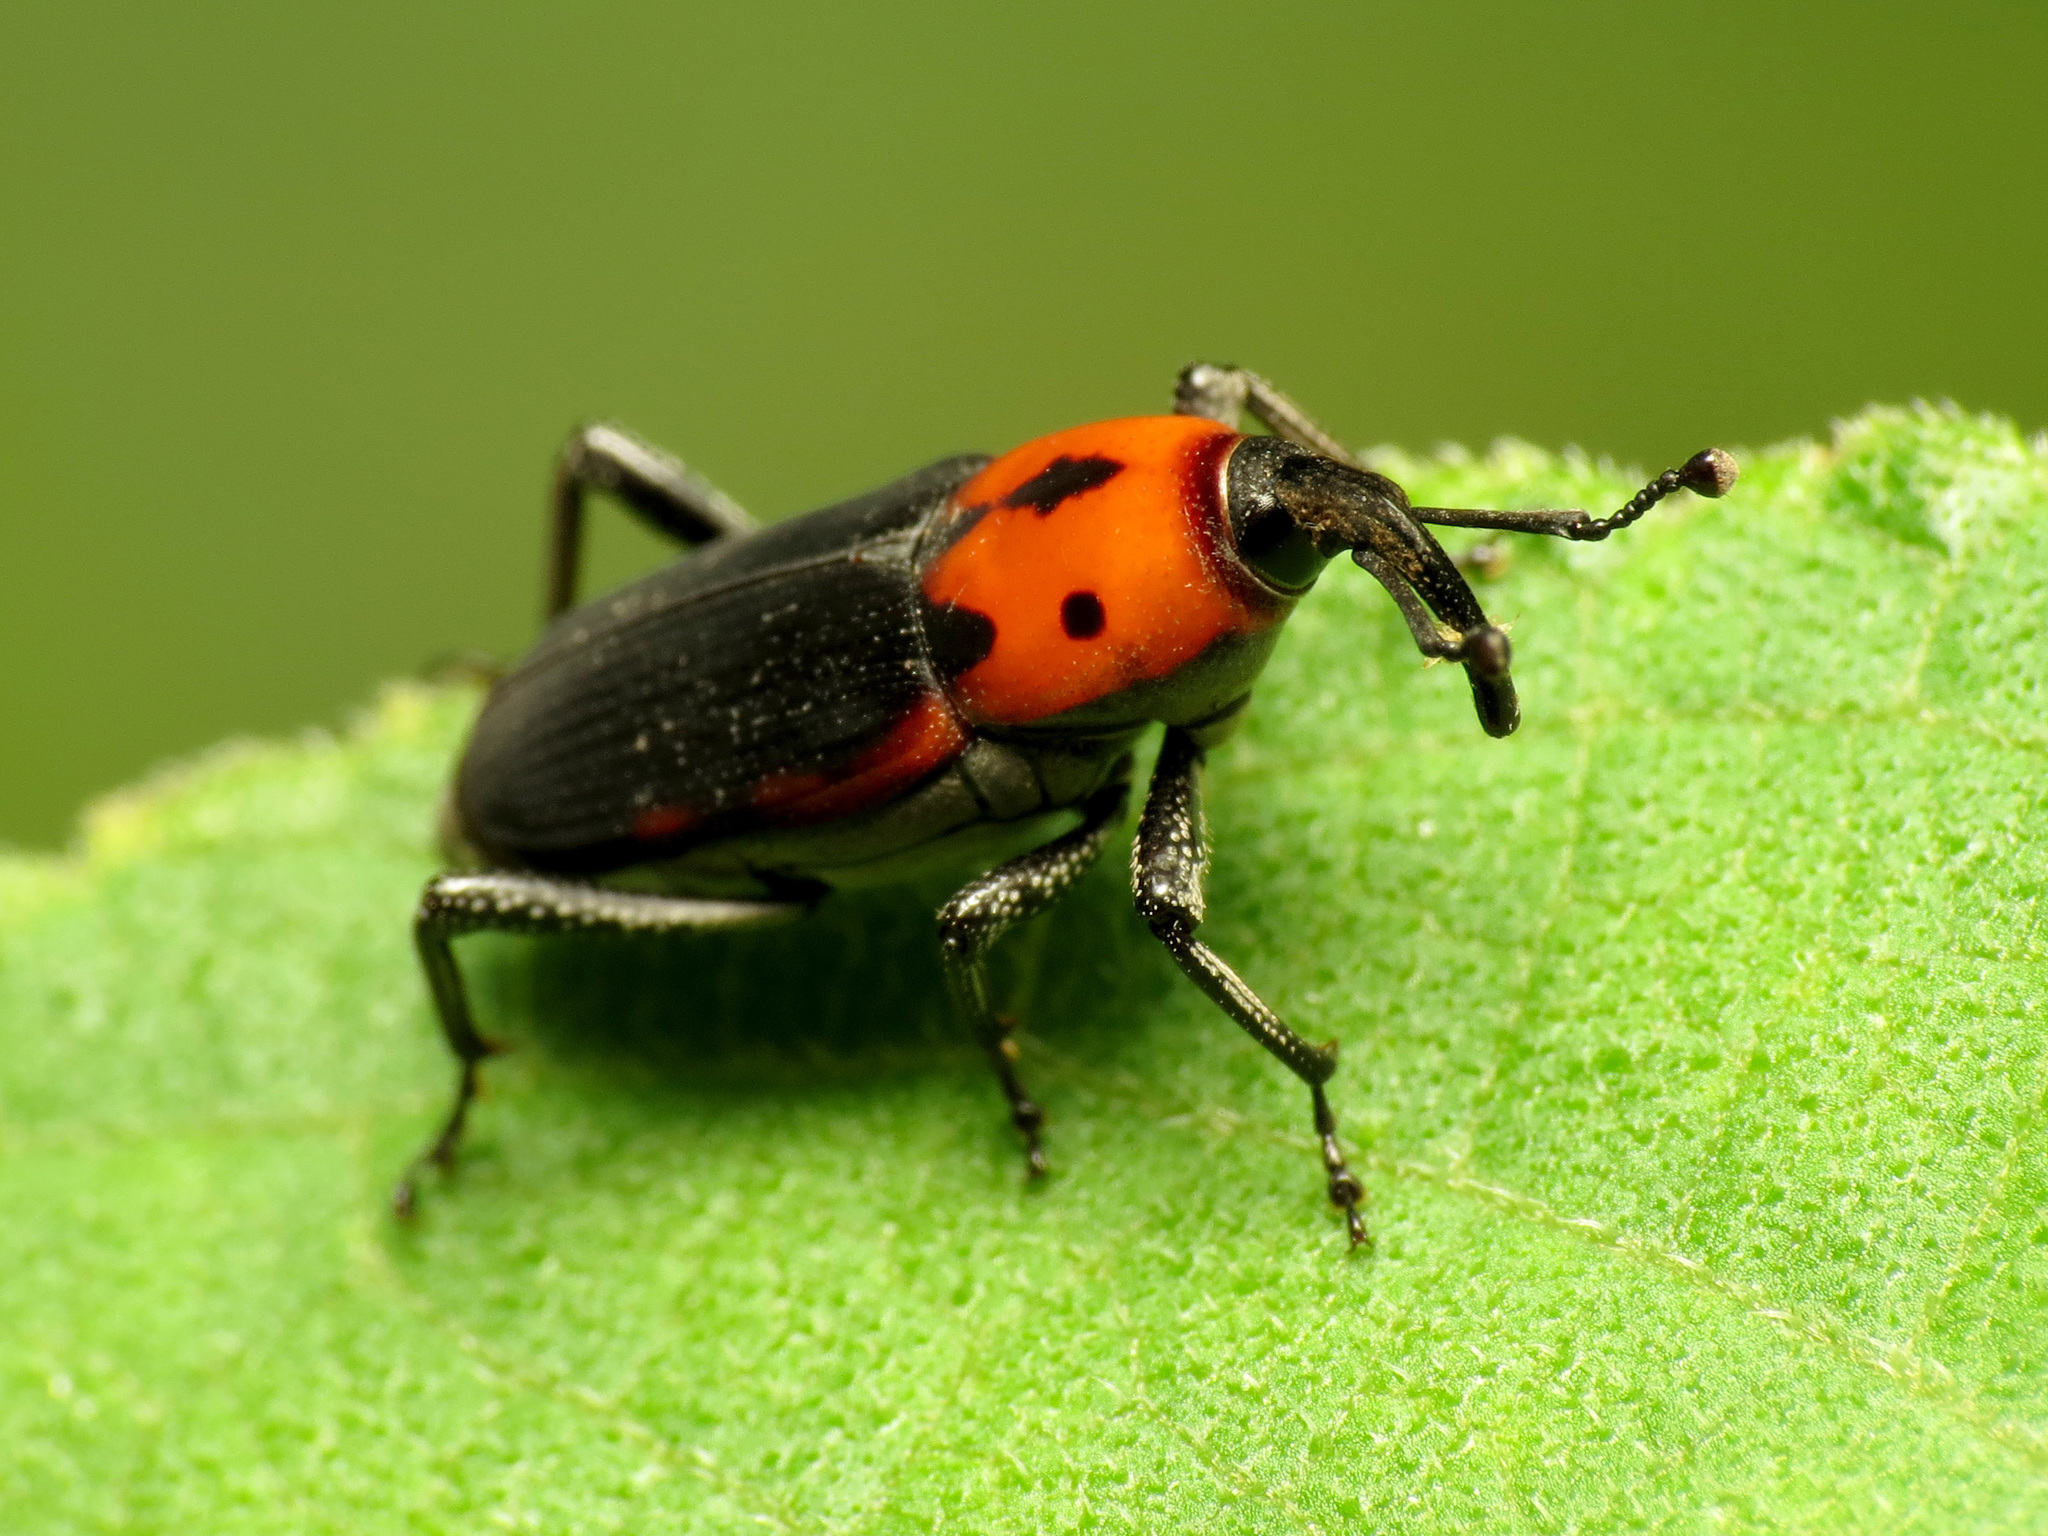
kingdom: Animalia
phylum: Arthropoda
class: Insecta
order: Coleoptera
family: Dryophthoridae
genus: Rhodobaenus
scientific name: Rhodobaenus auctus
